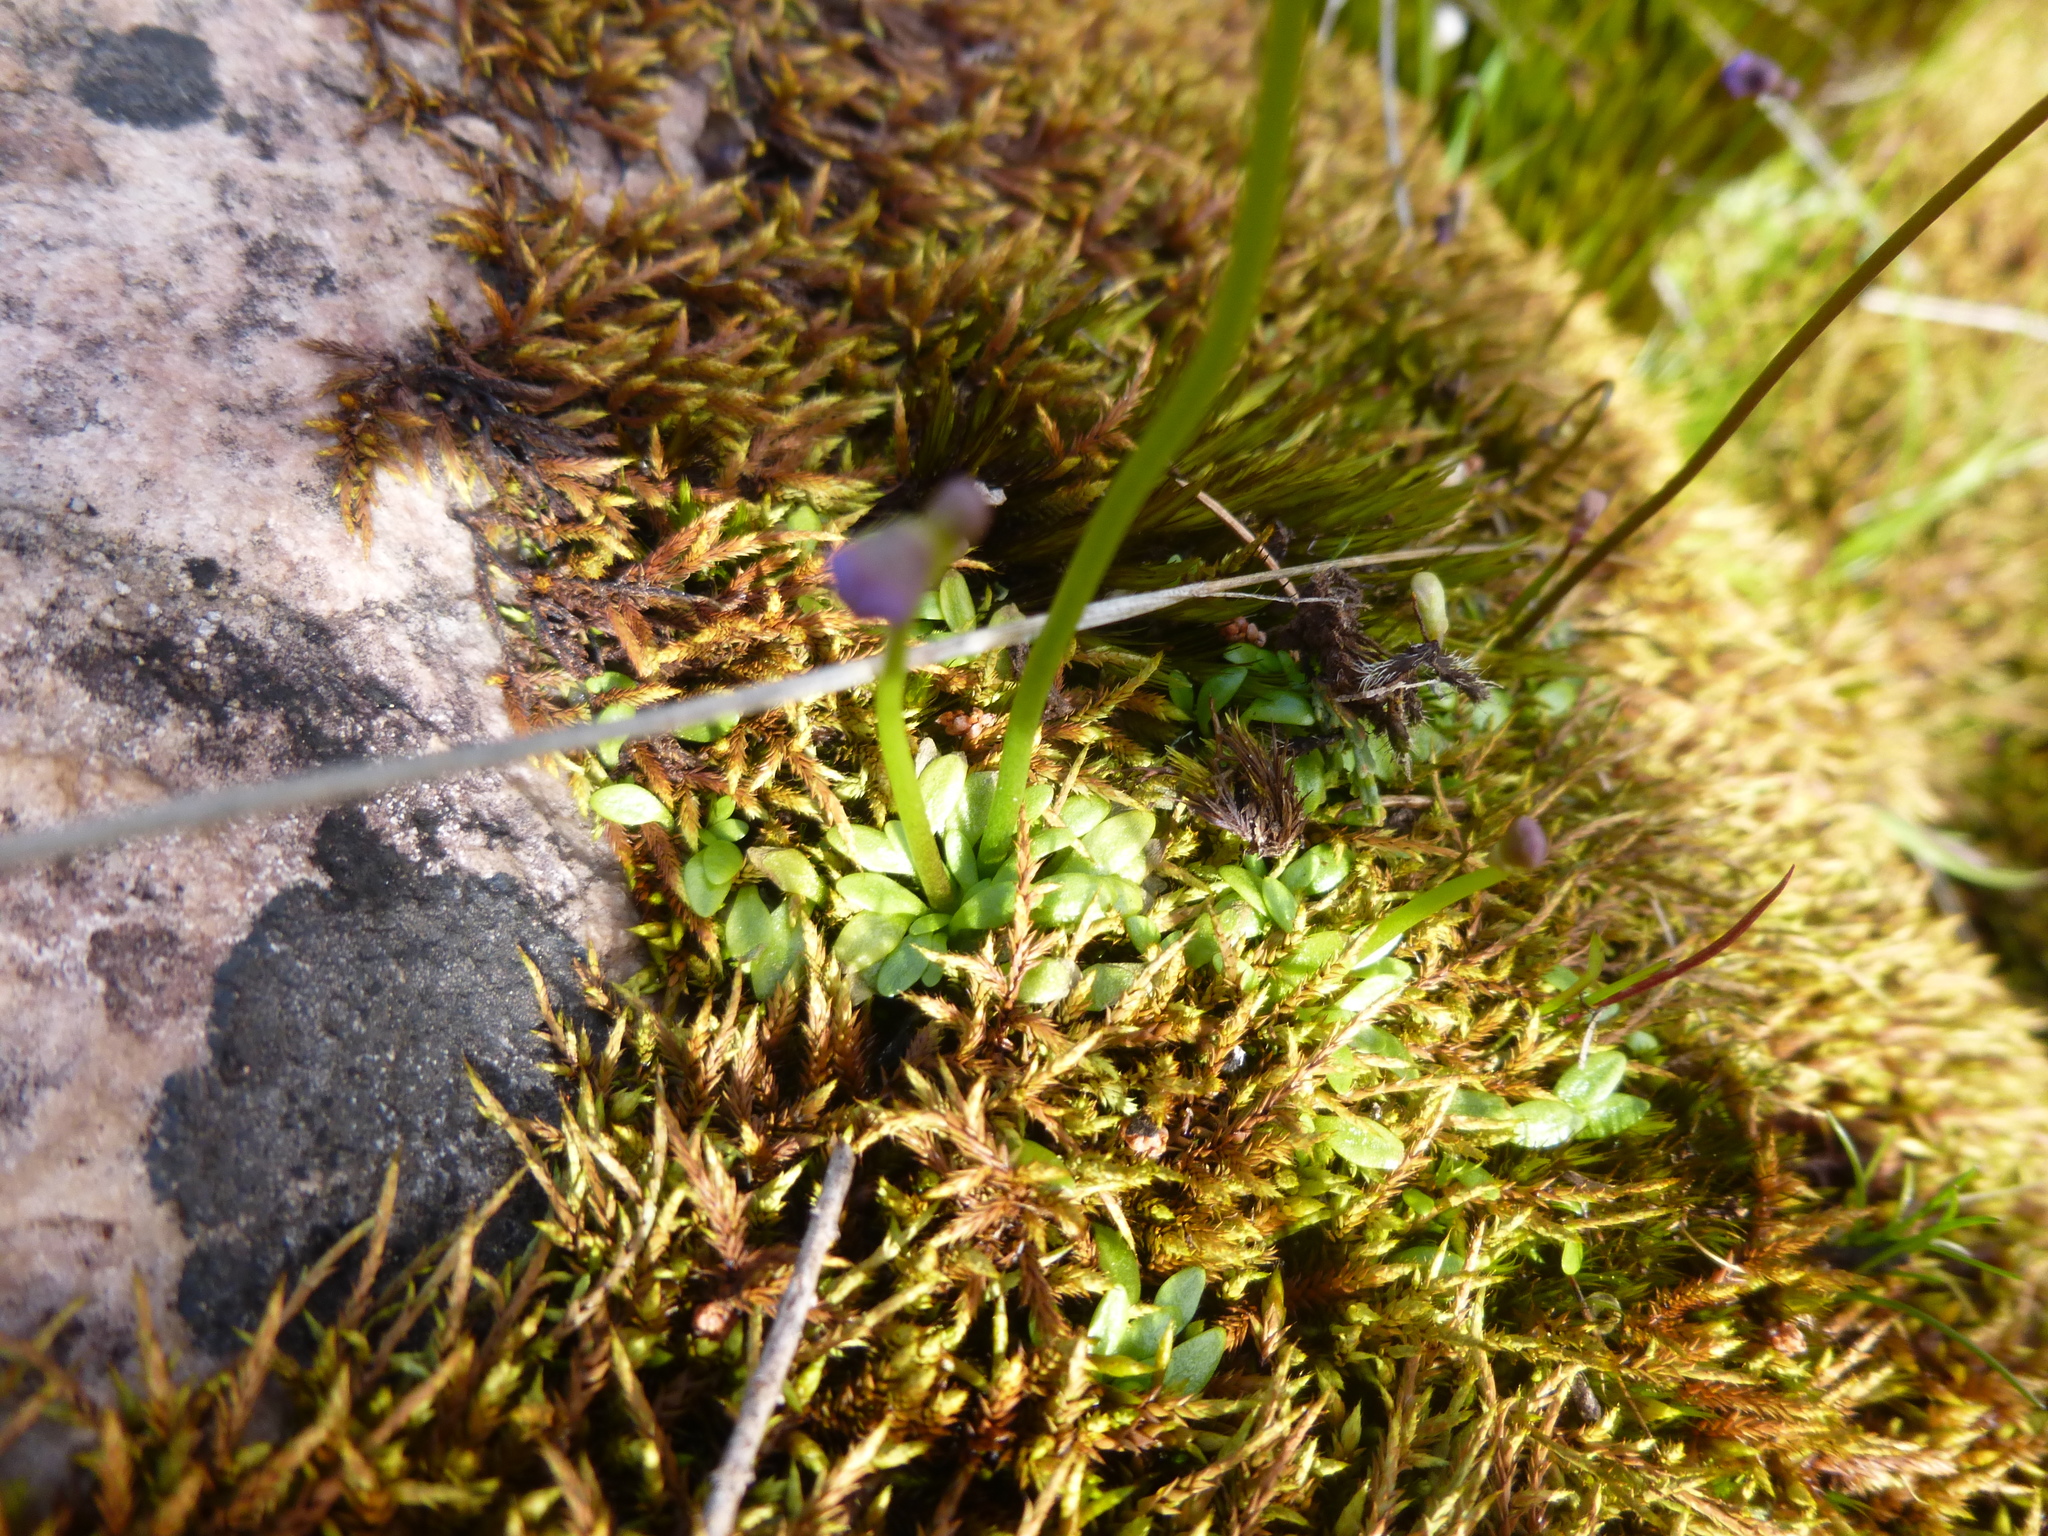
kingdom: Plantae
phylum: Tracheophyta
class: Magnoliopsida
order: Lamiales
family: Lentibulariaceae
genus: Utricularia
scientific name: Utricularia grampiana
